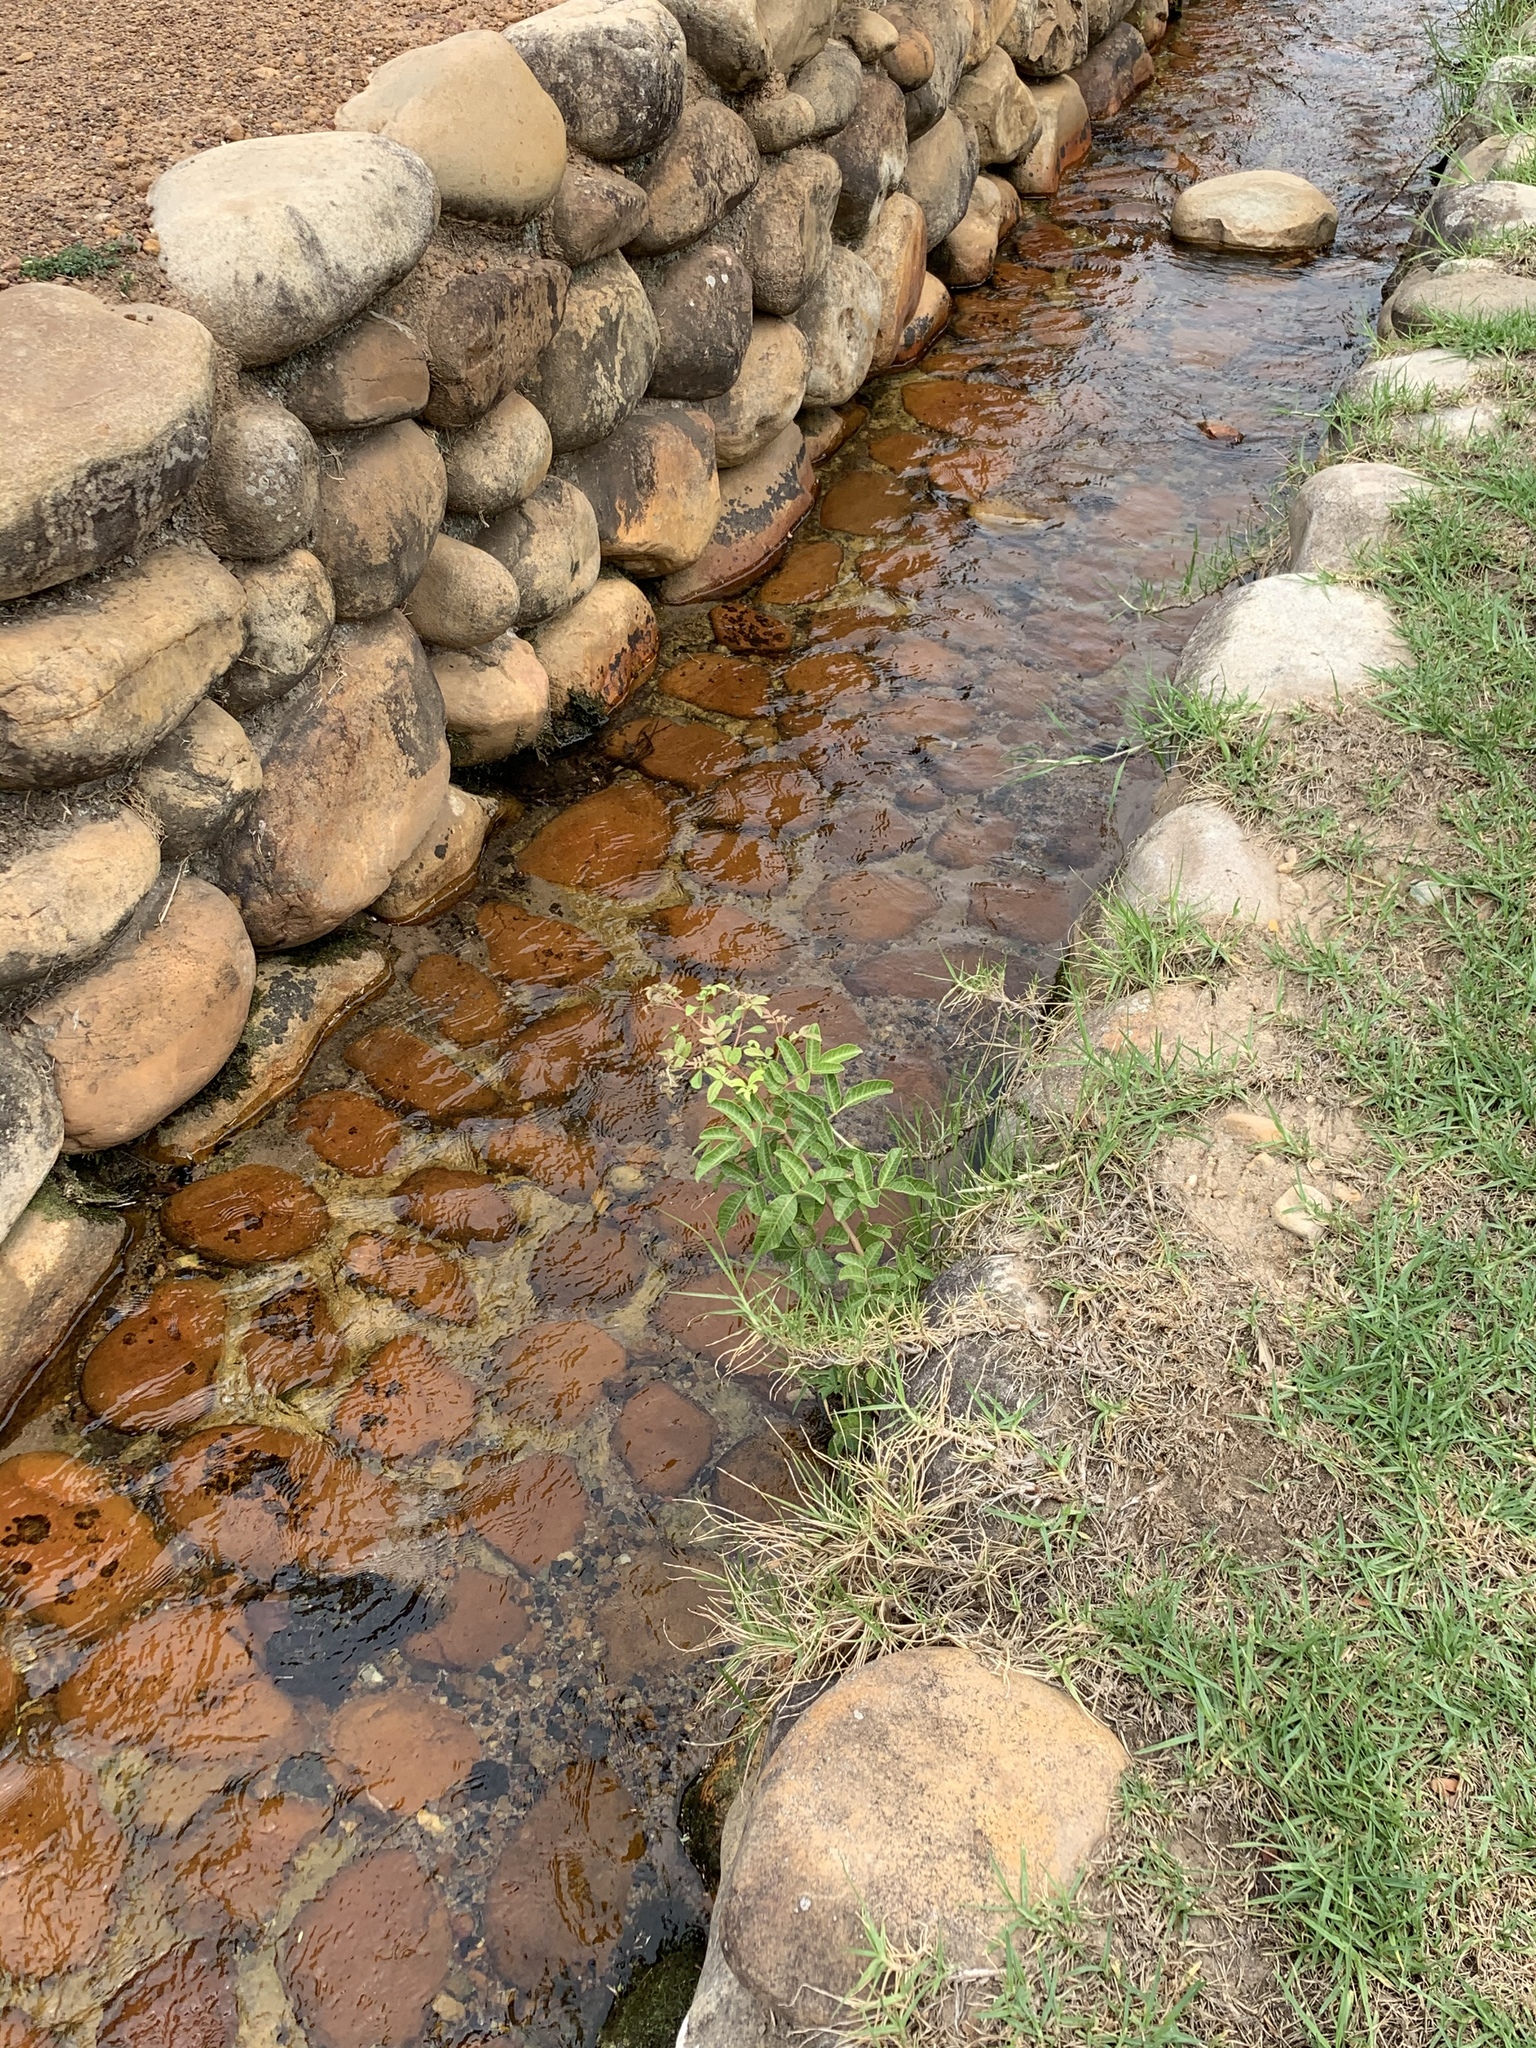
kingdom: Plantae
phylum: Tracheophyta
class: Magnoliopsida
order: Sapindales
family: Anacardiaceae
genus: Schinus
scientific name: Schinus terebinthifolia
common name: Brazilian peppertree
